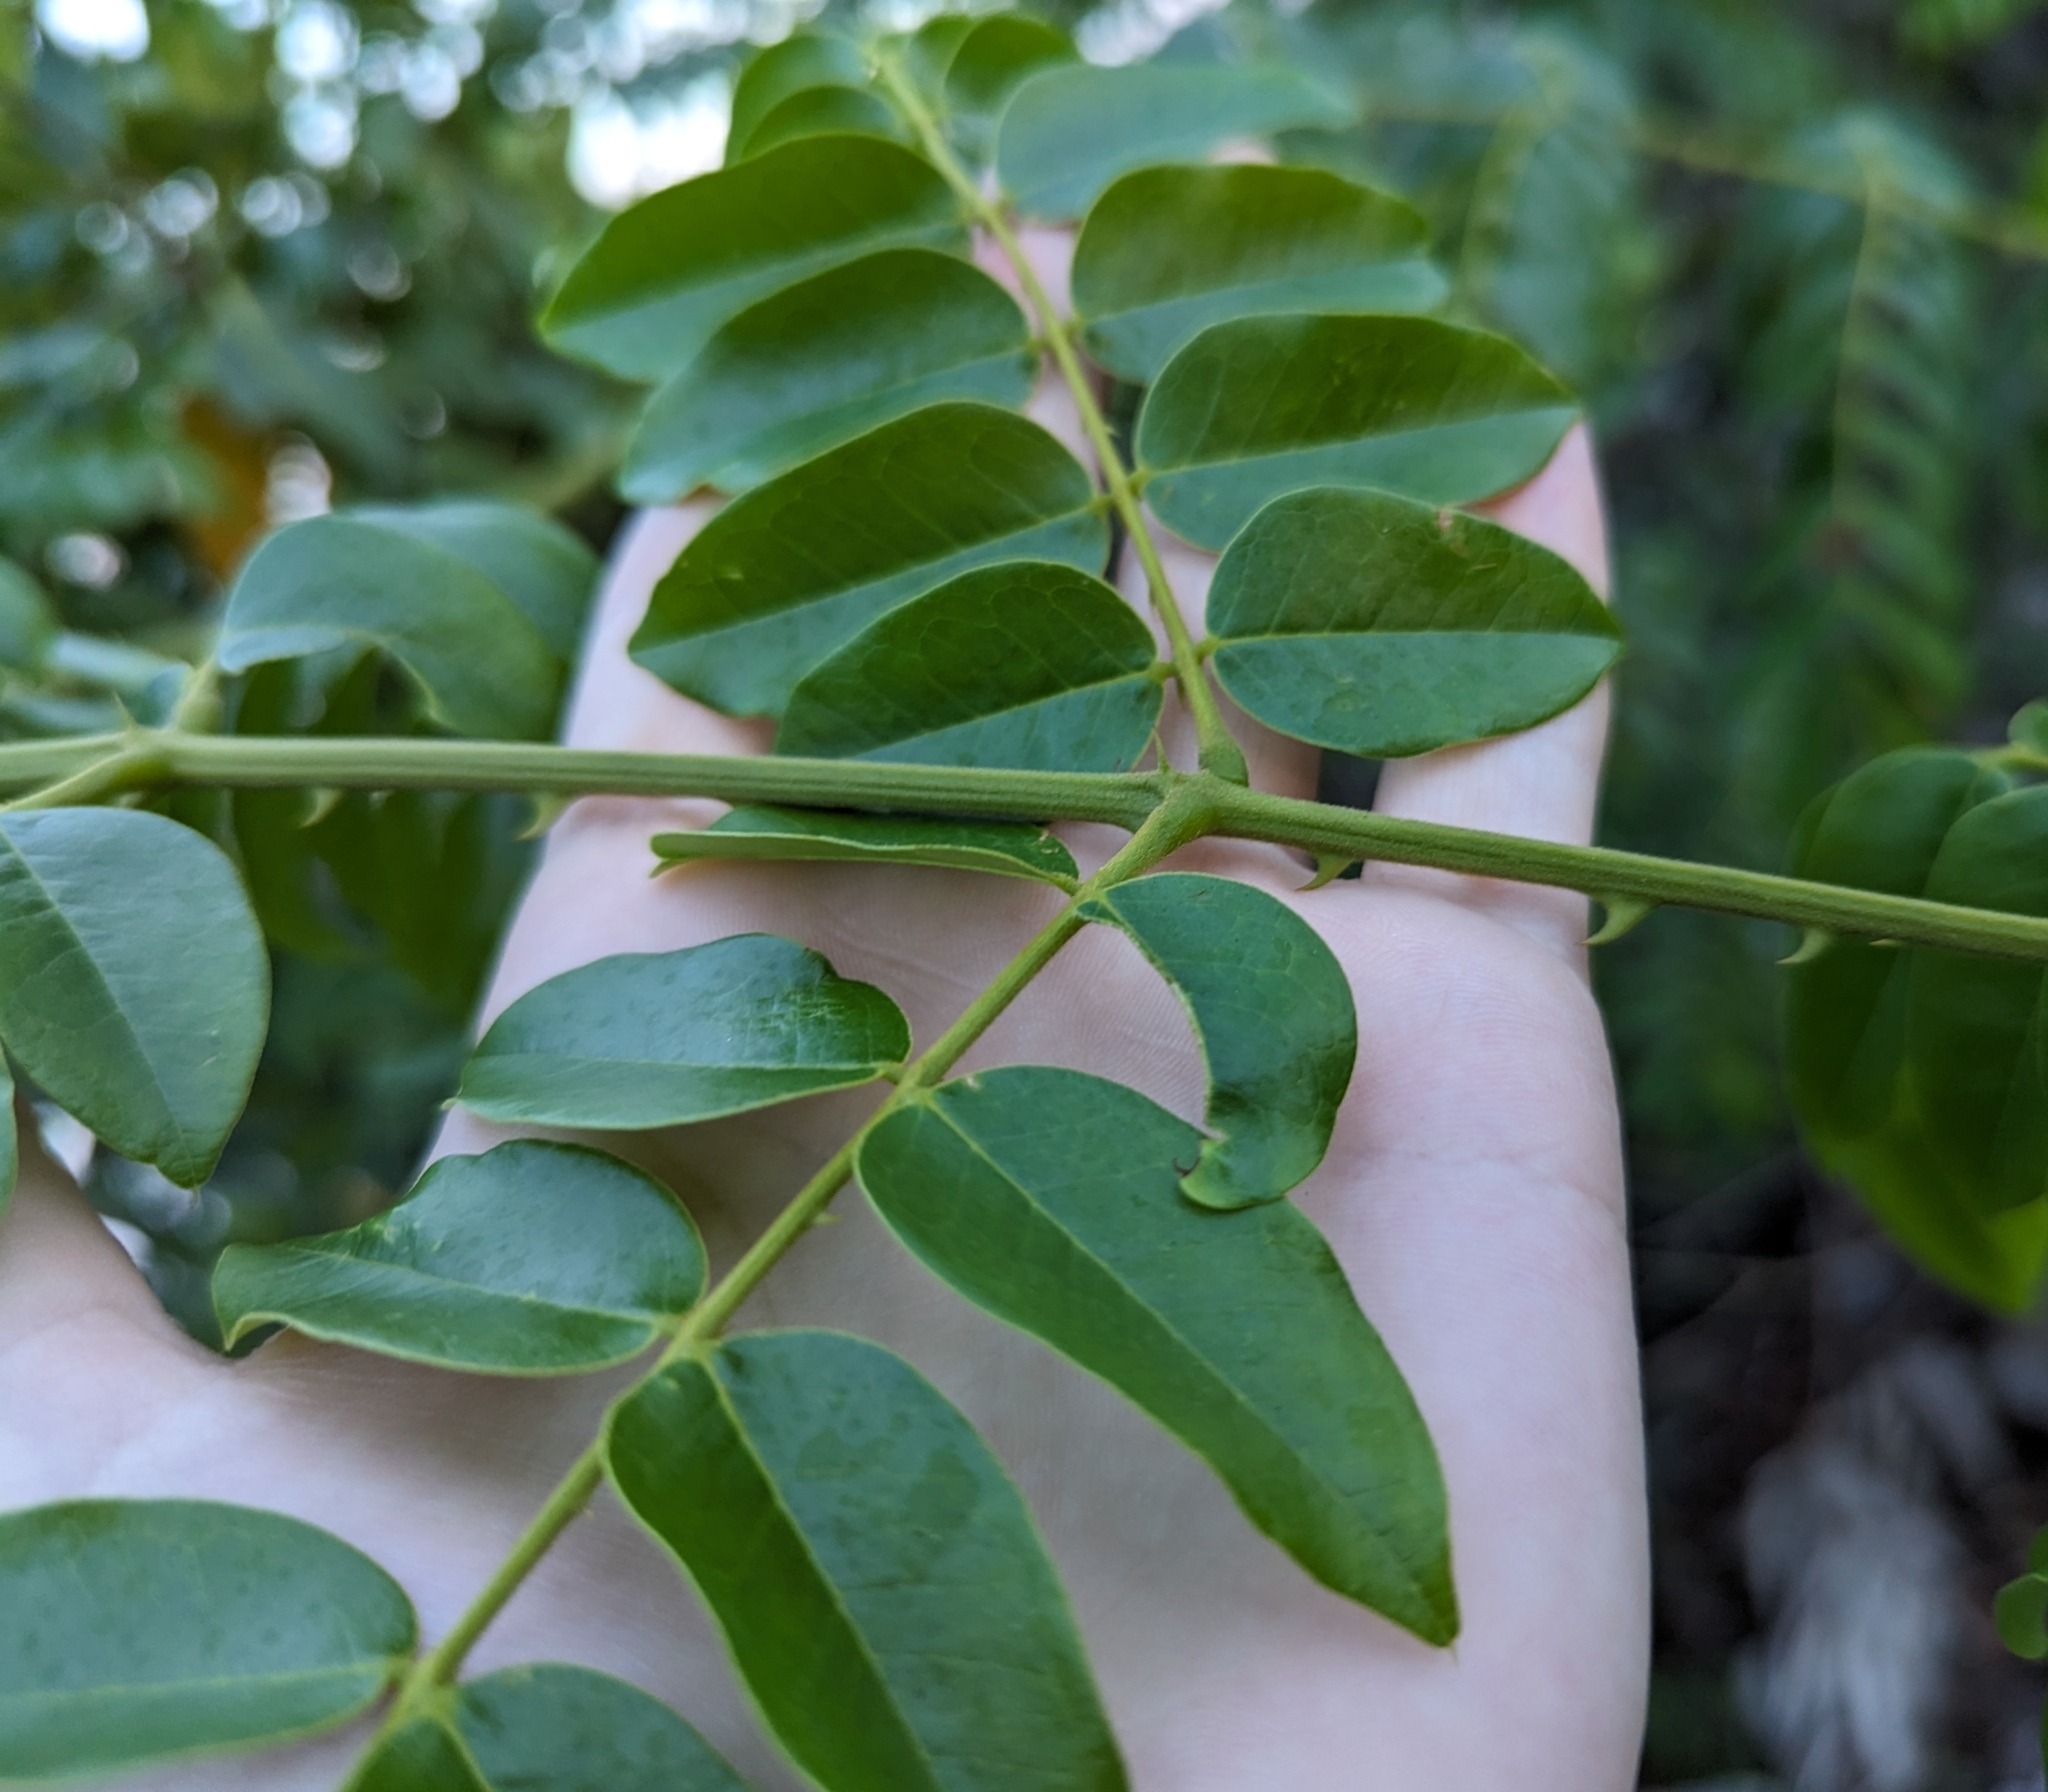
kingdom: Plantae
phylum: Tracheophyta
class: Magnoliopsida
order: Fabales
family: Fabaceae
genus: Guilandina
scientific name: Guilandina bonduc
